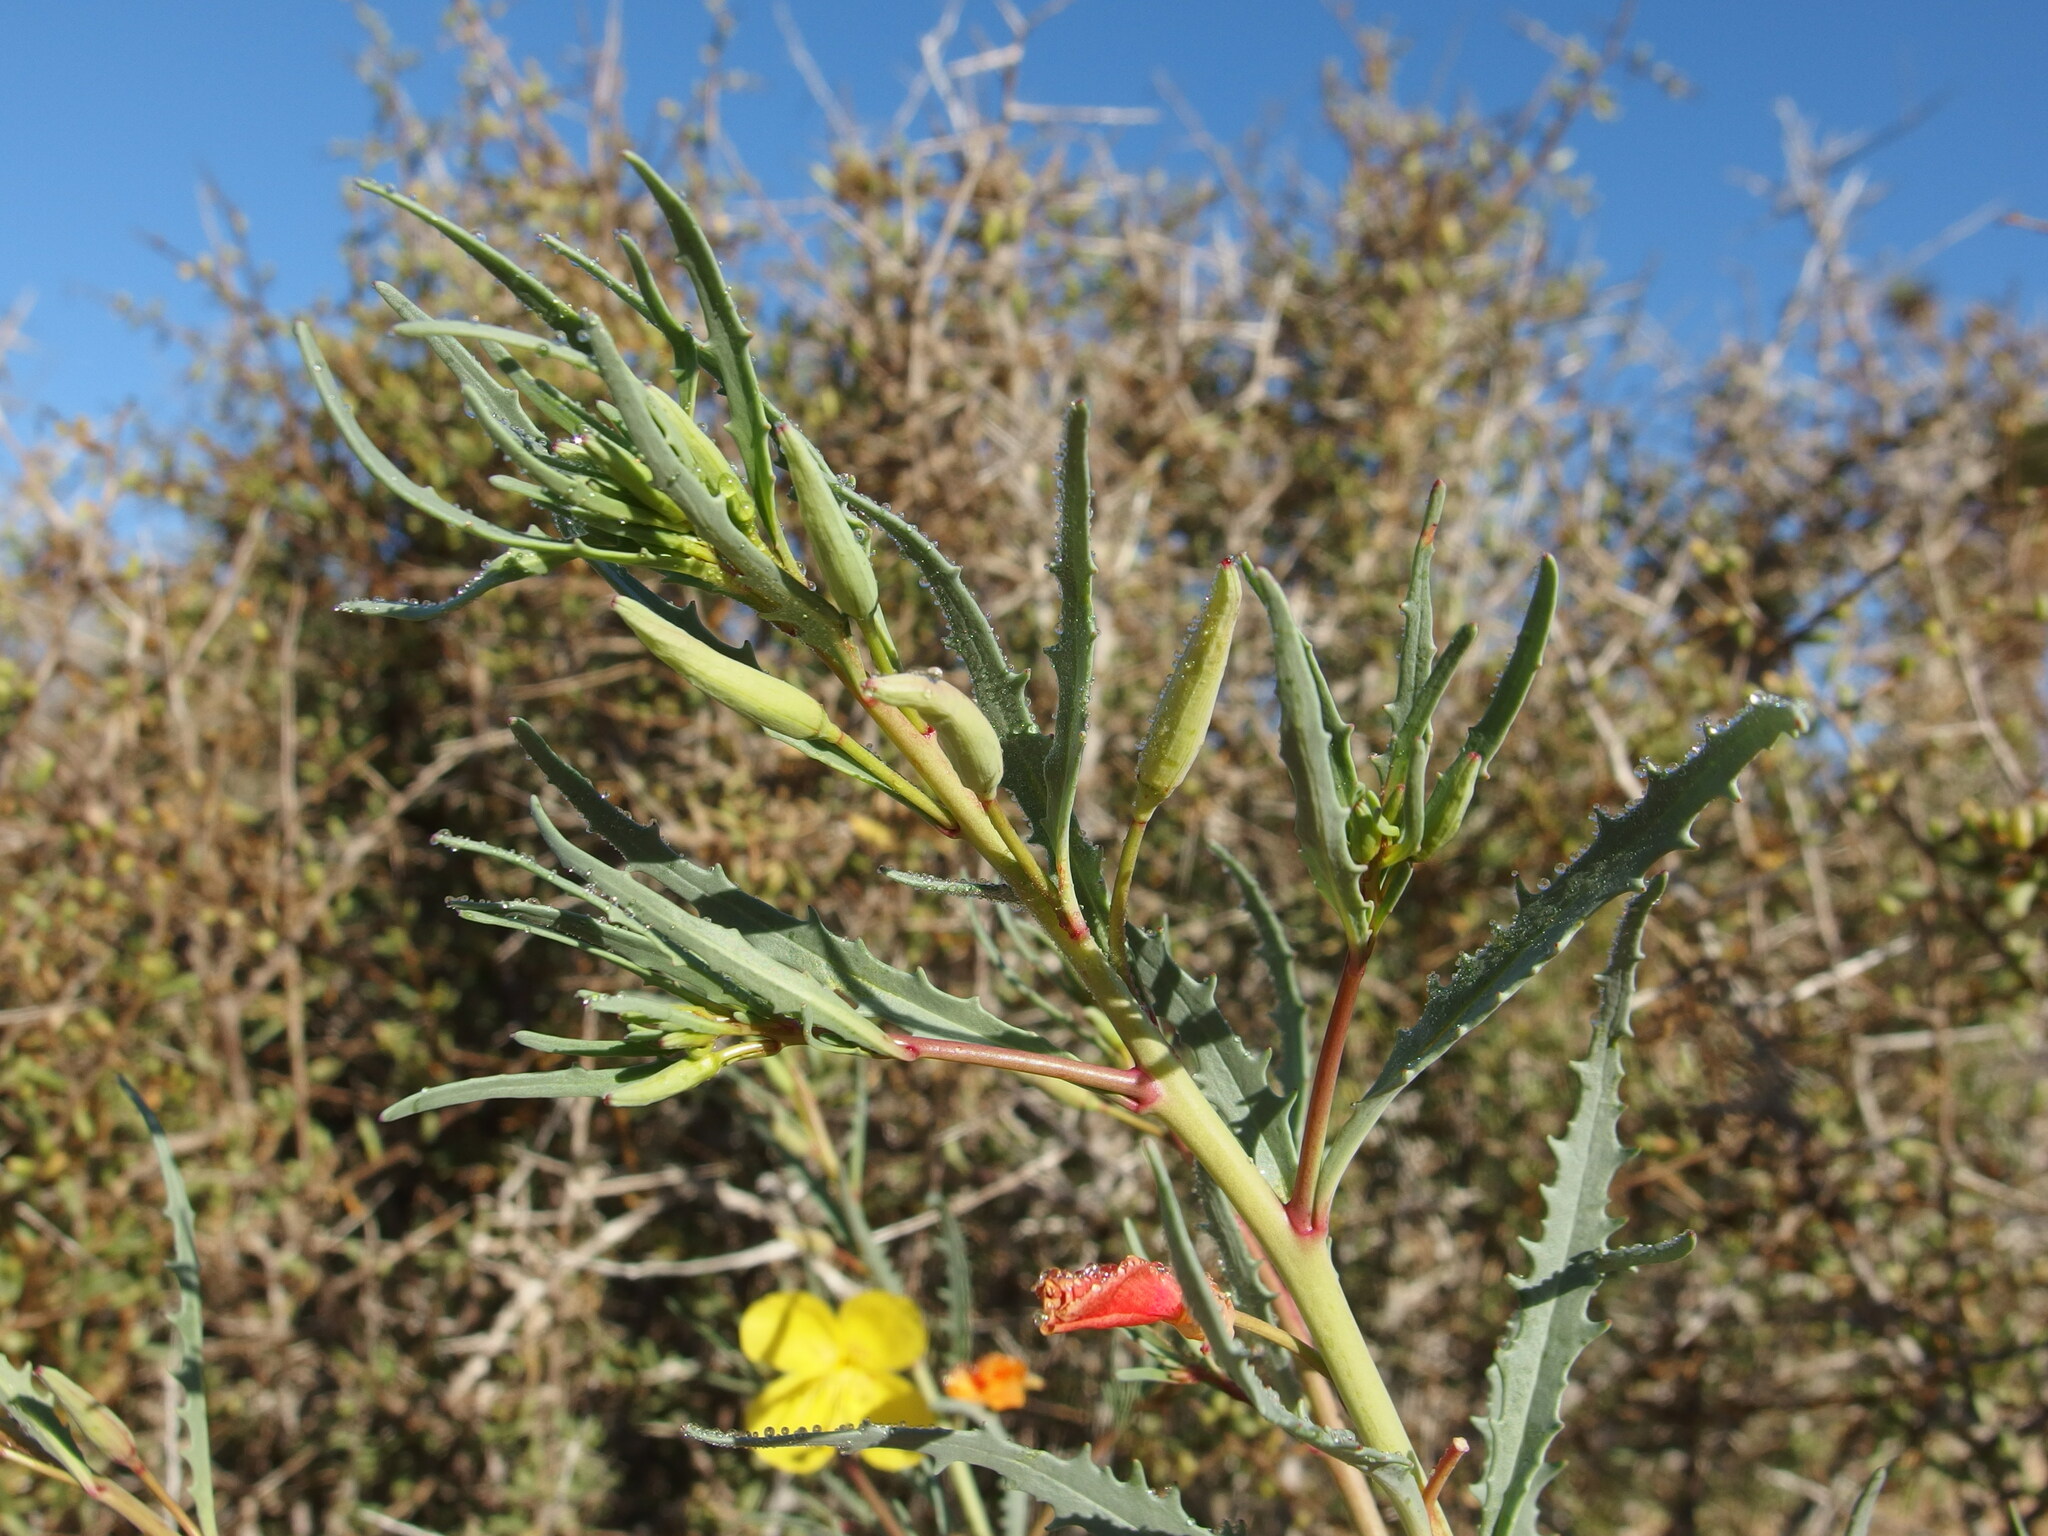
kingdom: Plantae
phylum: Tracheophyta
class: Magnoliopsida
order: Myrtales
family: Onagraceae
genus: Eulobus
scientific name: Eulobus crassifolius
